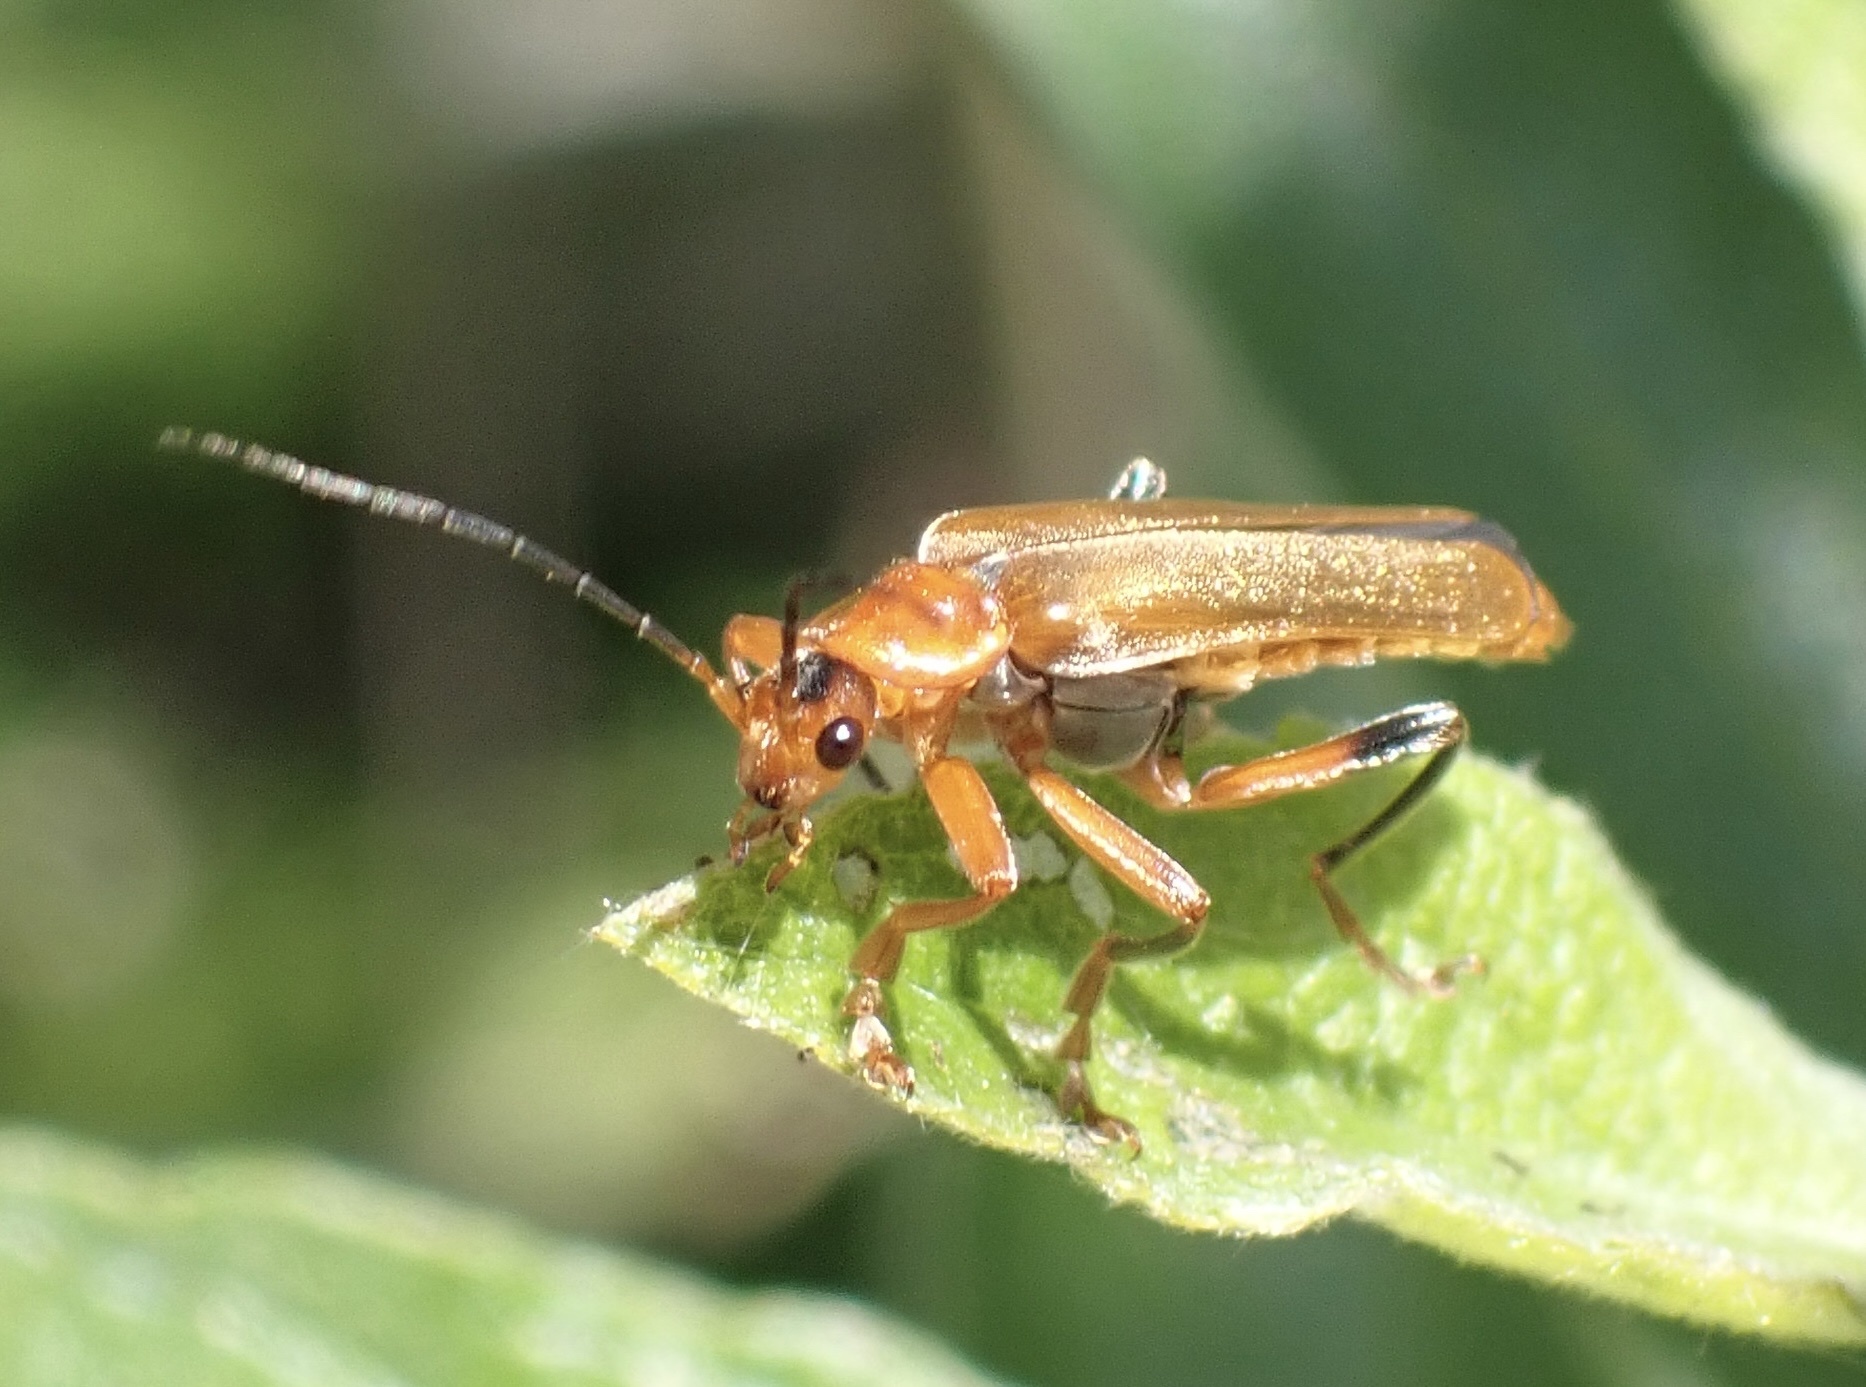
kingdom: Animalia
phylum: Arthropoda
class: Insecta
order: Coleoptera
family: Cantharidae
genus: Cantharis
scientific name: Cantharis livida
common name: Livid soldier beetle
